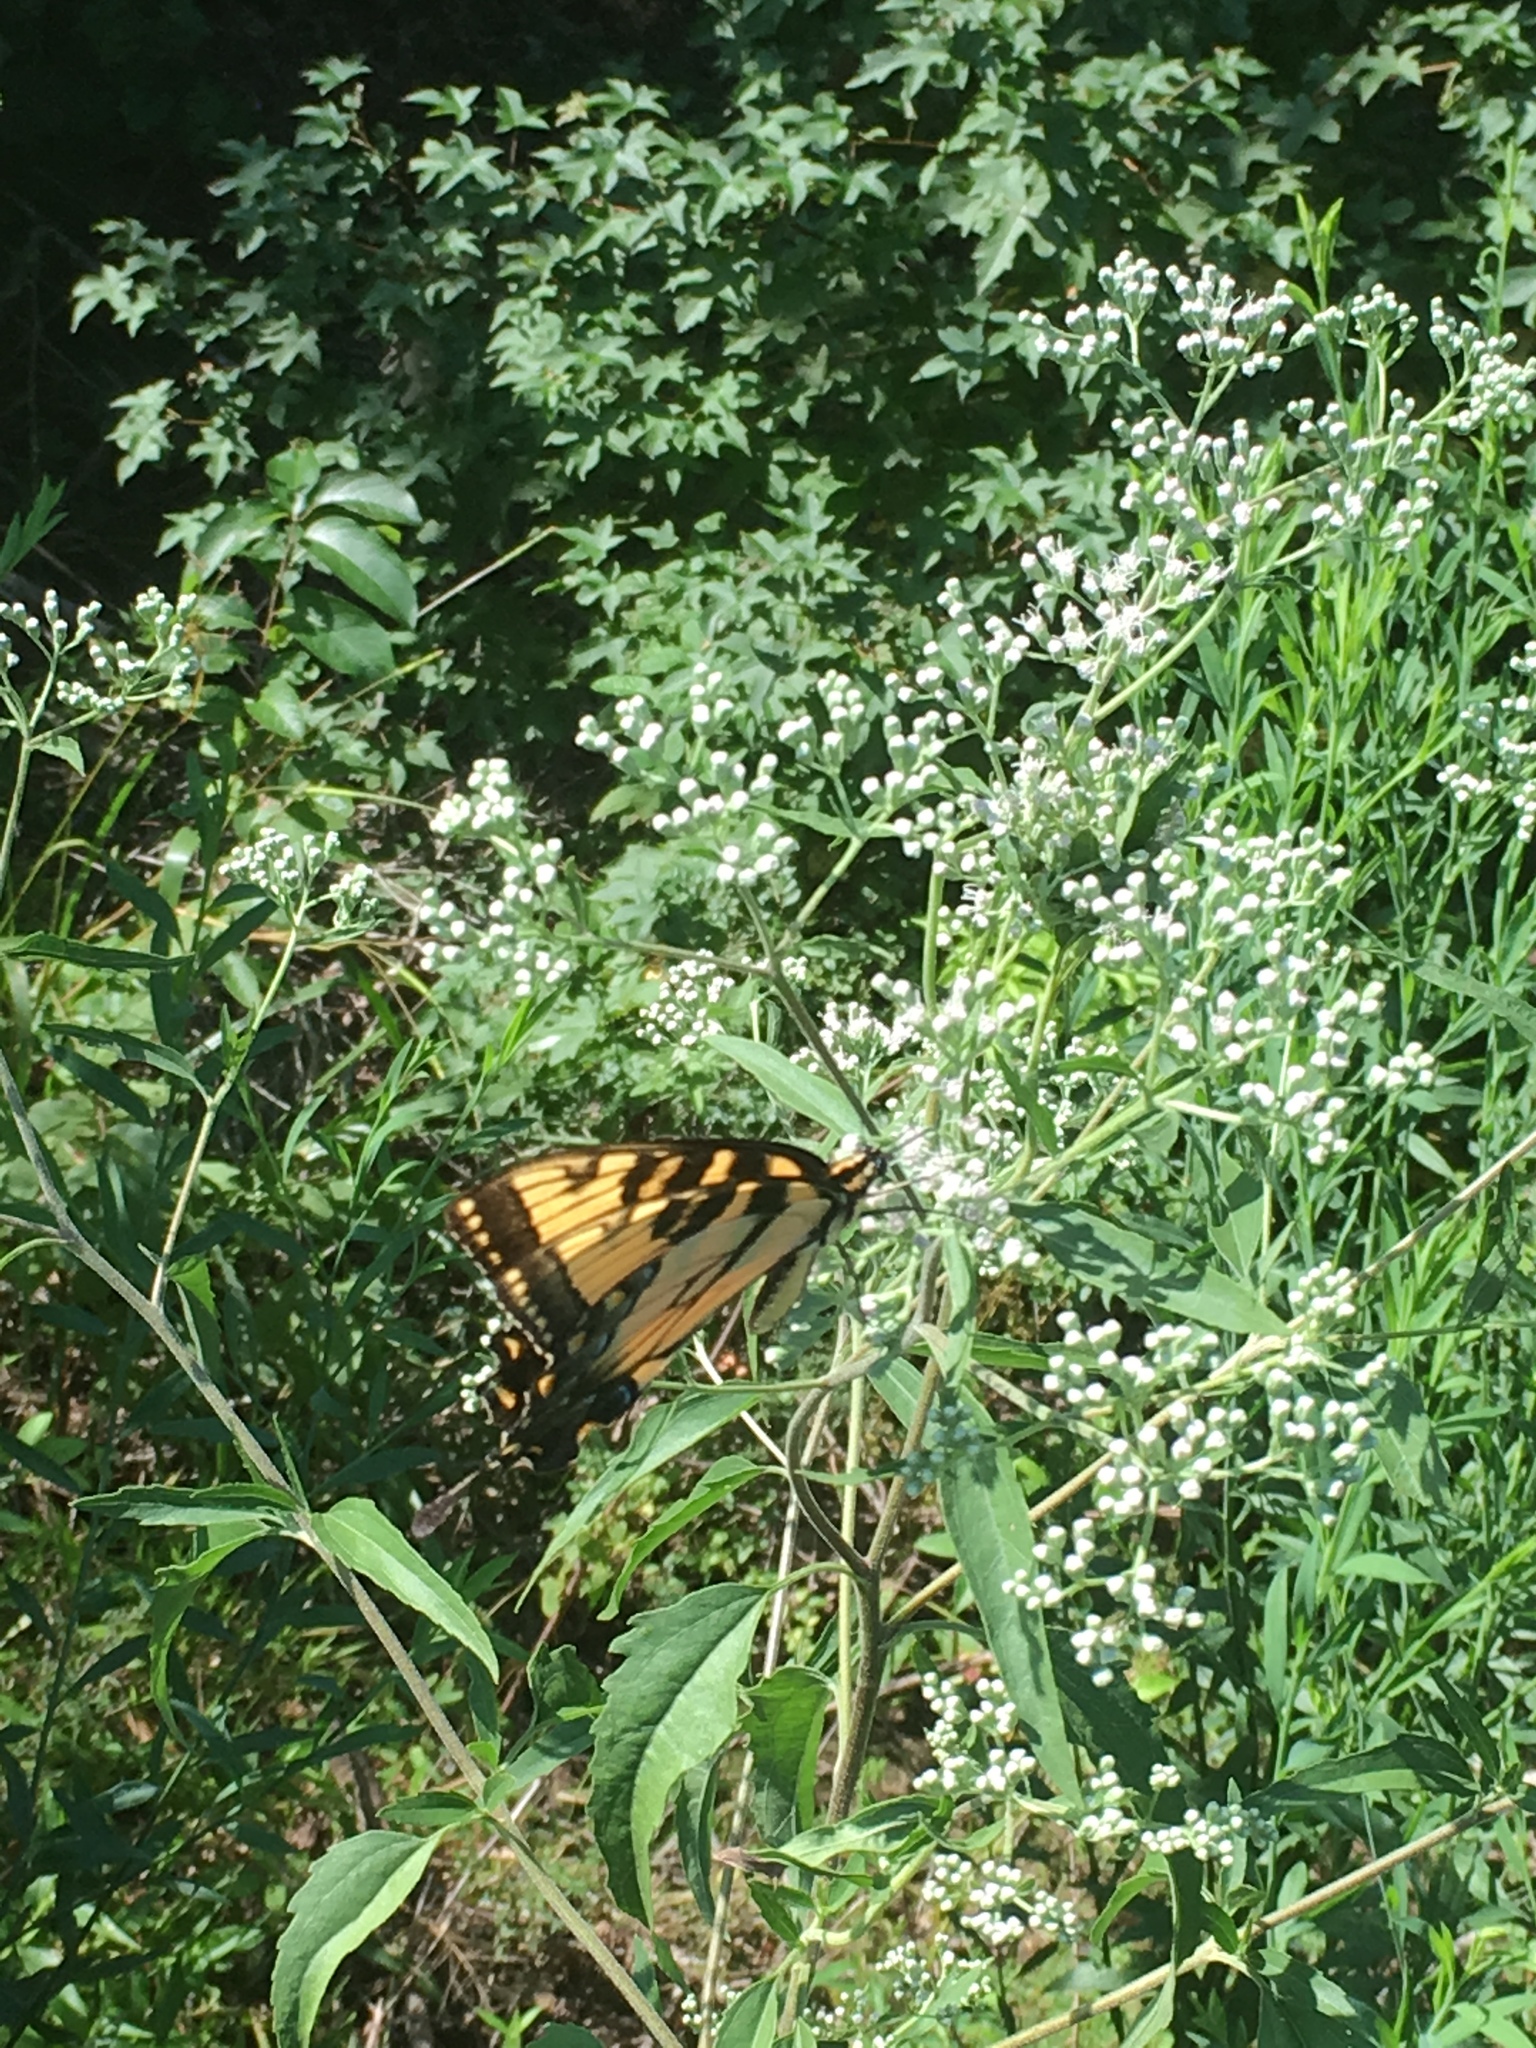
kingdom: Animalia
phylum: Arthropoda
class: Insecta
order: Lepidoptera
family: Papilionidae
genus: Papilio
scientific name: Papilio glaucus
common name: Tiger swallowtail
